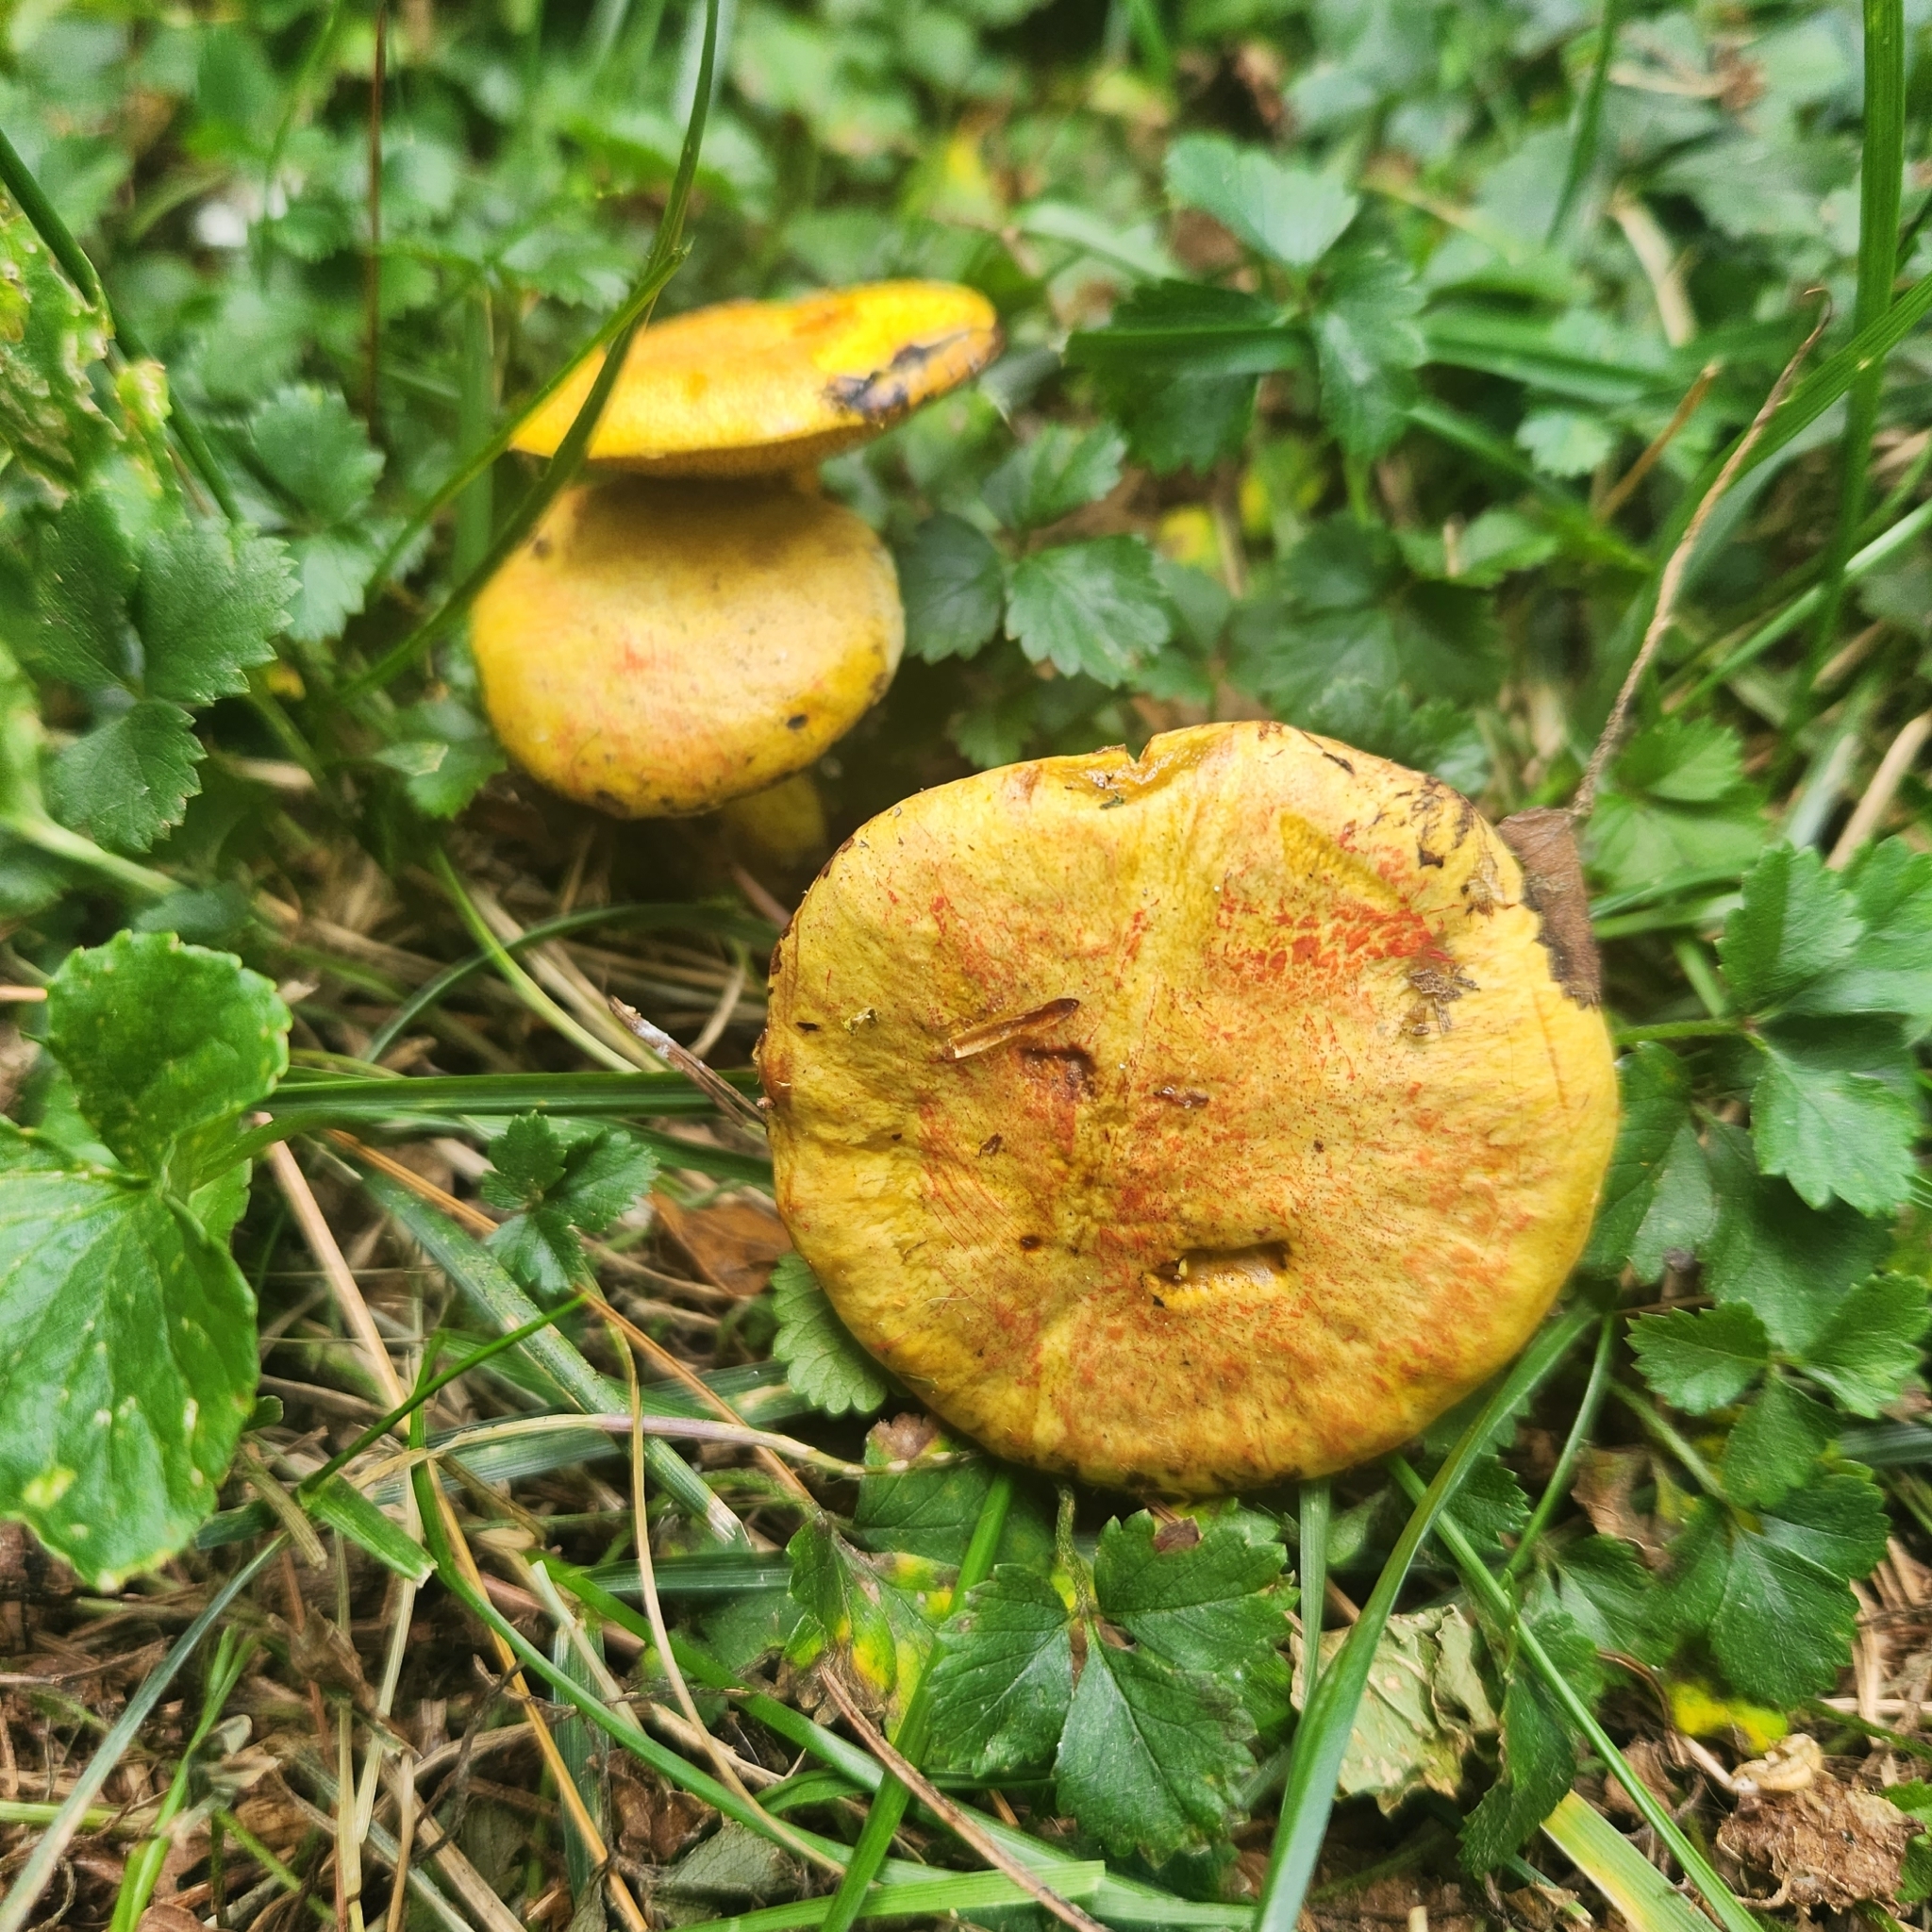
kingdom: Fungi
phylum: Basidiomycota
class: Agaricomycetes
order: Boletales
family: Suillaceae
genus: Suillus
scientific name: Suillus americanus
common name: Chicken fat mushroom
